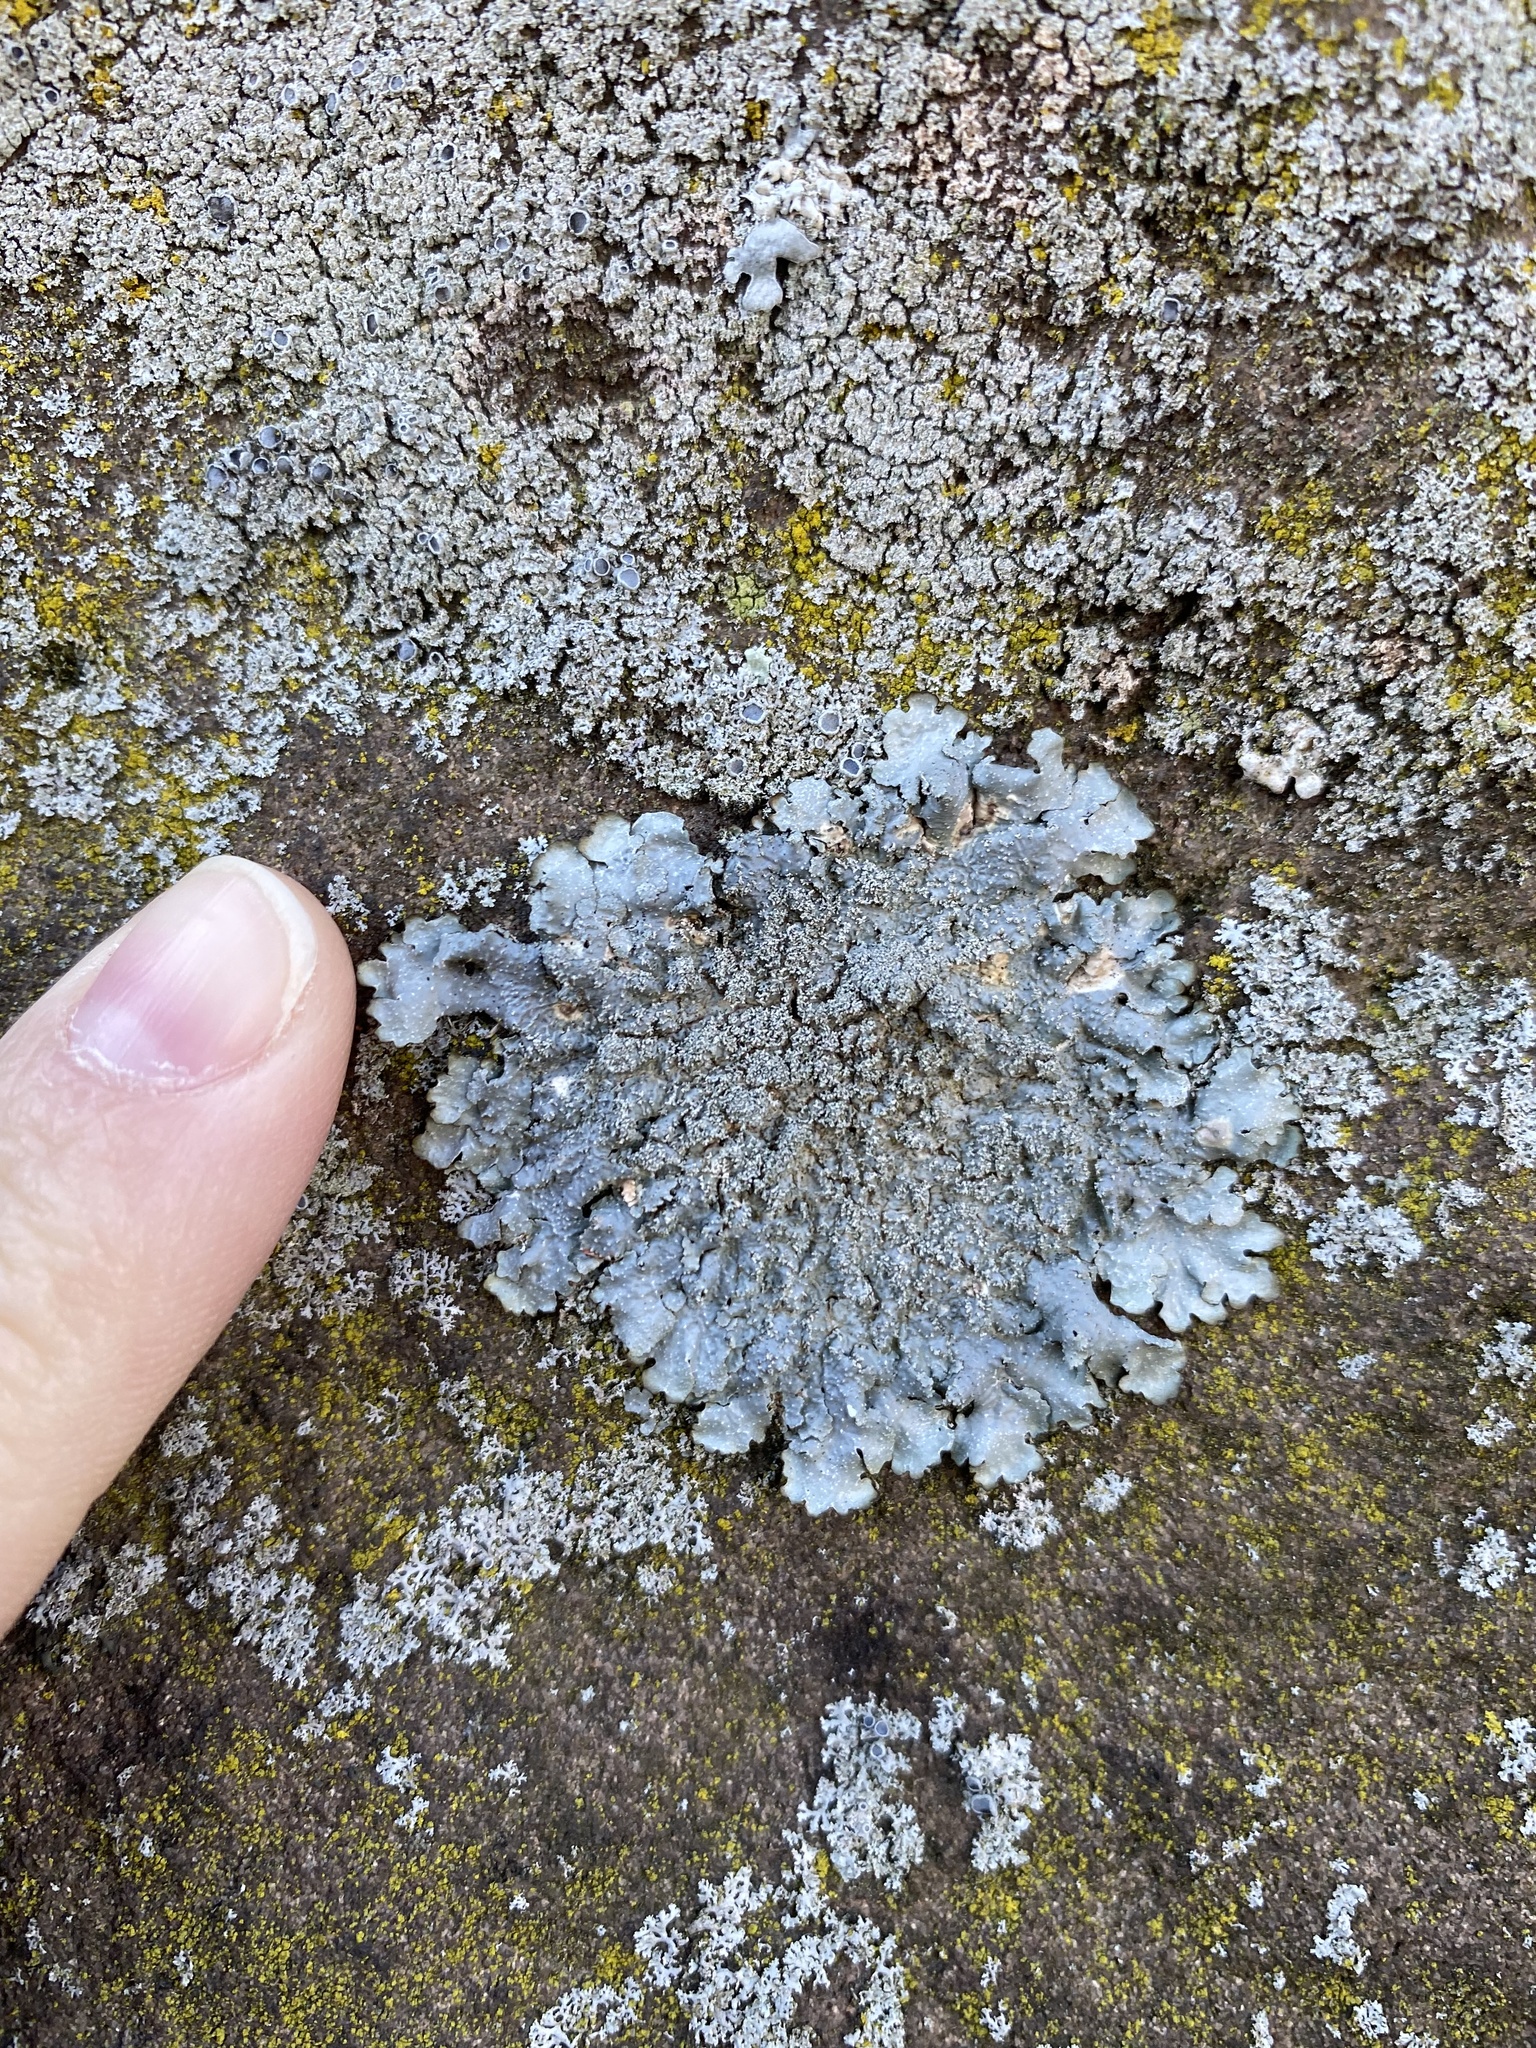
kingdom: Fungi
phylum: Ascomycota
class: Lecanoromycetes
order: Lecanorales
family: Parmeliaceae
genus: Punctelia
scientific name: Punctelia rudecta
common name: Rough speckled shield lichen
